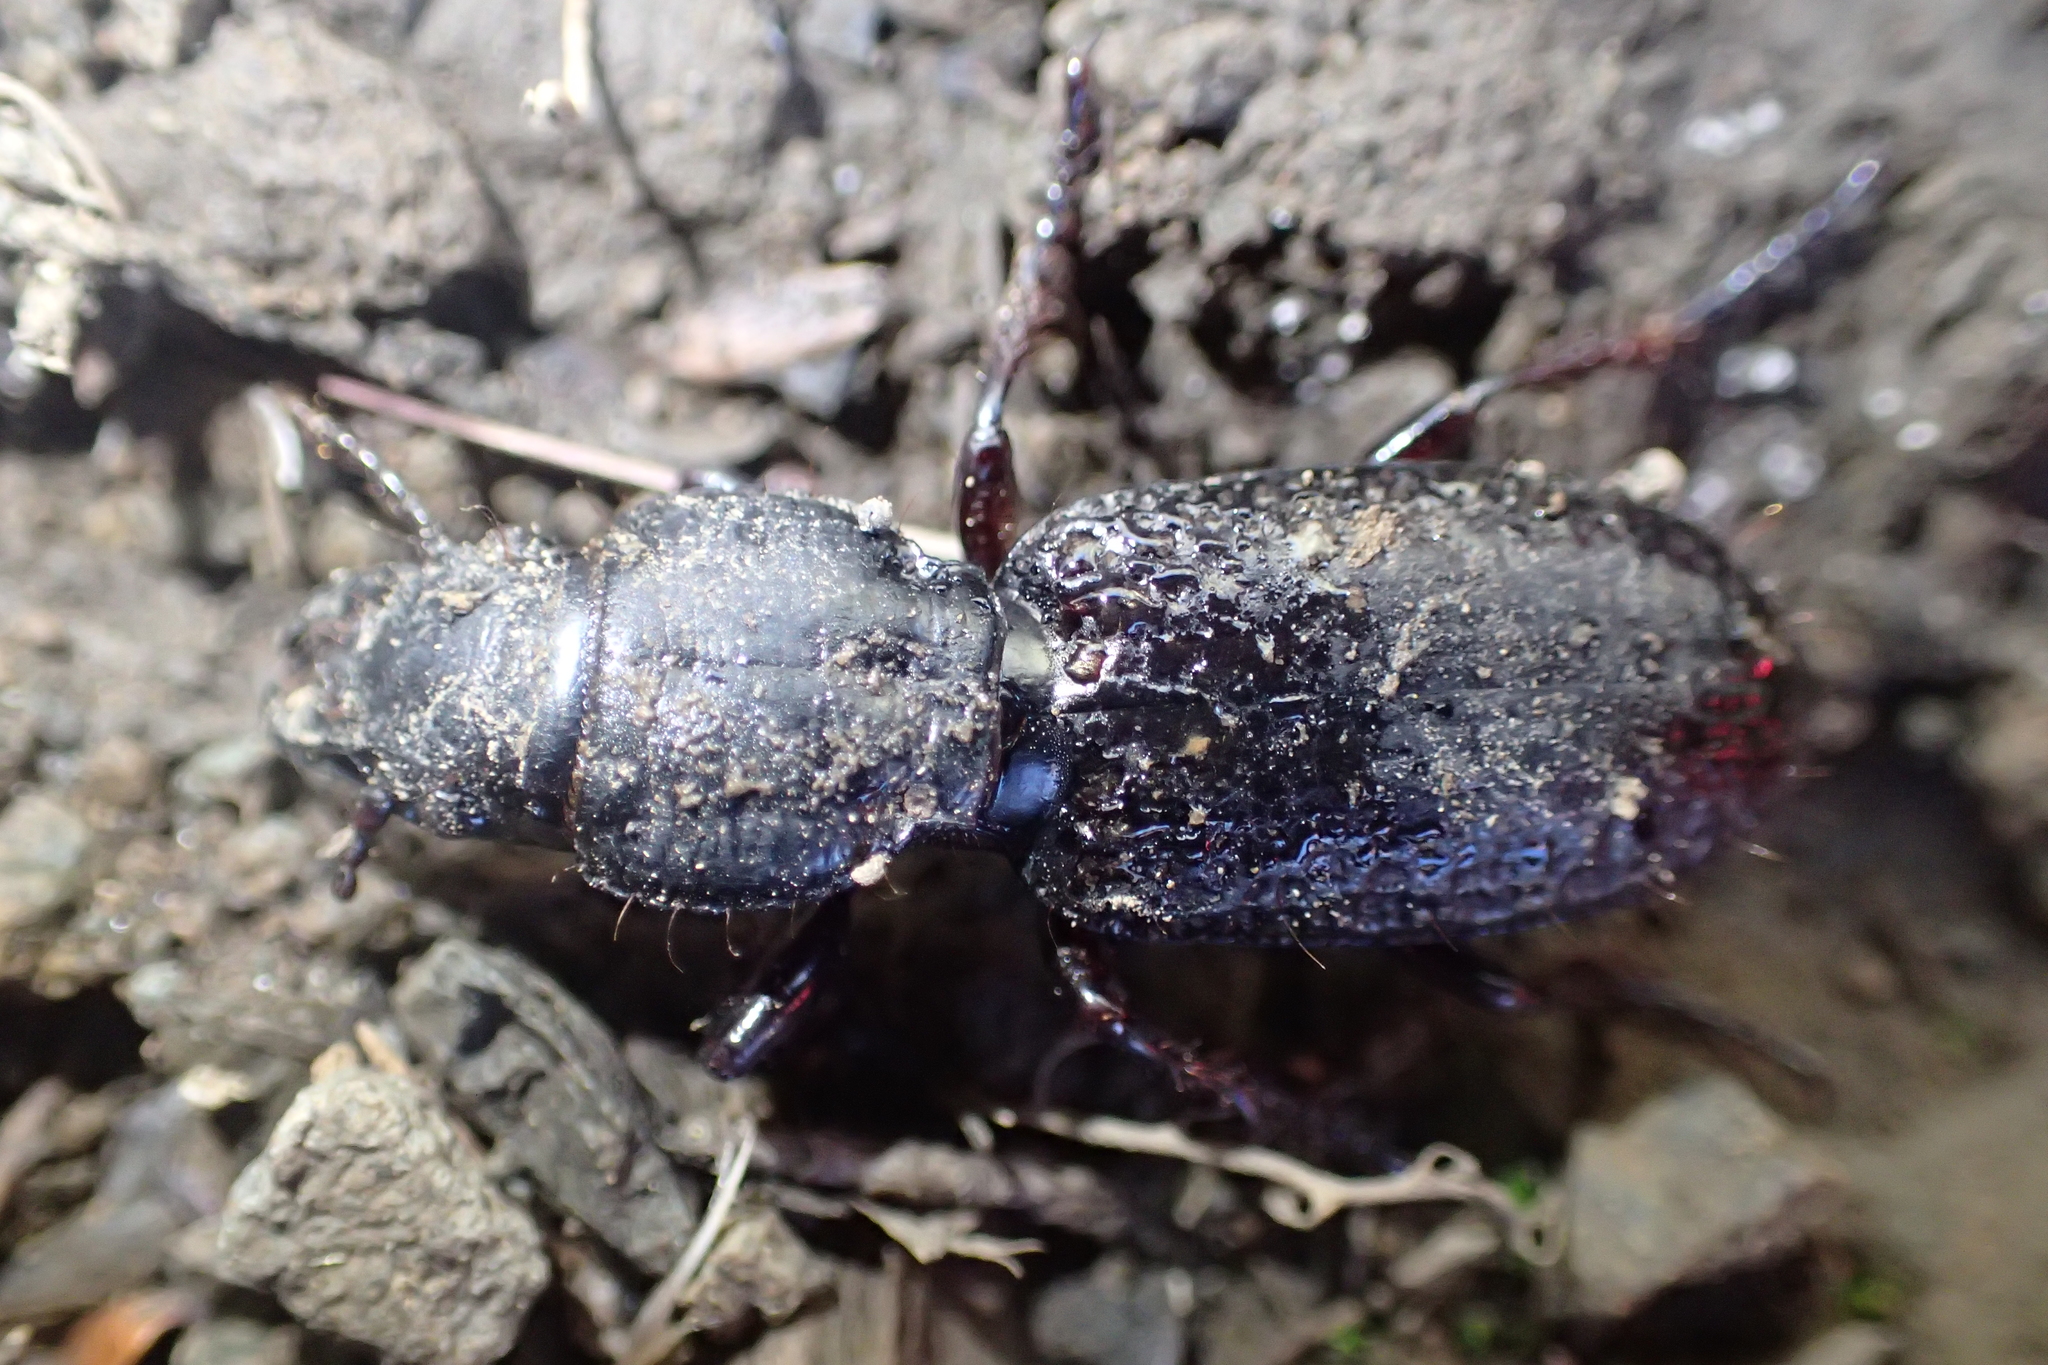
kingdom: Animalia
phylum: Arthropoda
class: Insecta
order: Coleoptera
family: Carabidae
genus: Mecodema
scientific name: Mecodema crenicolle
